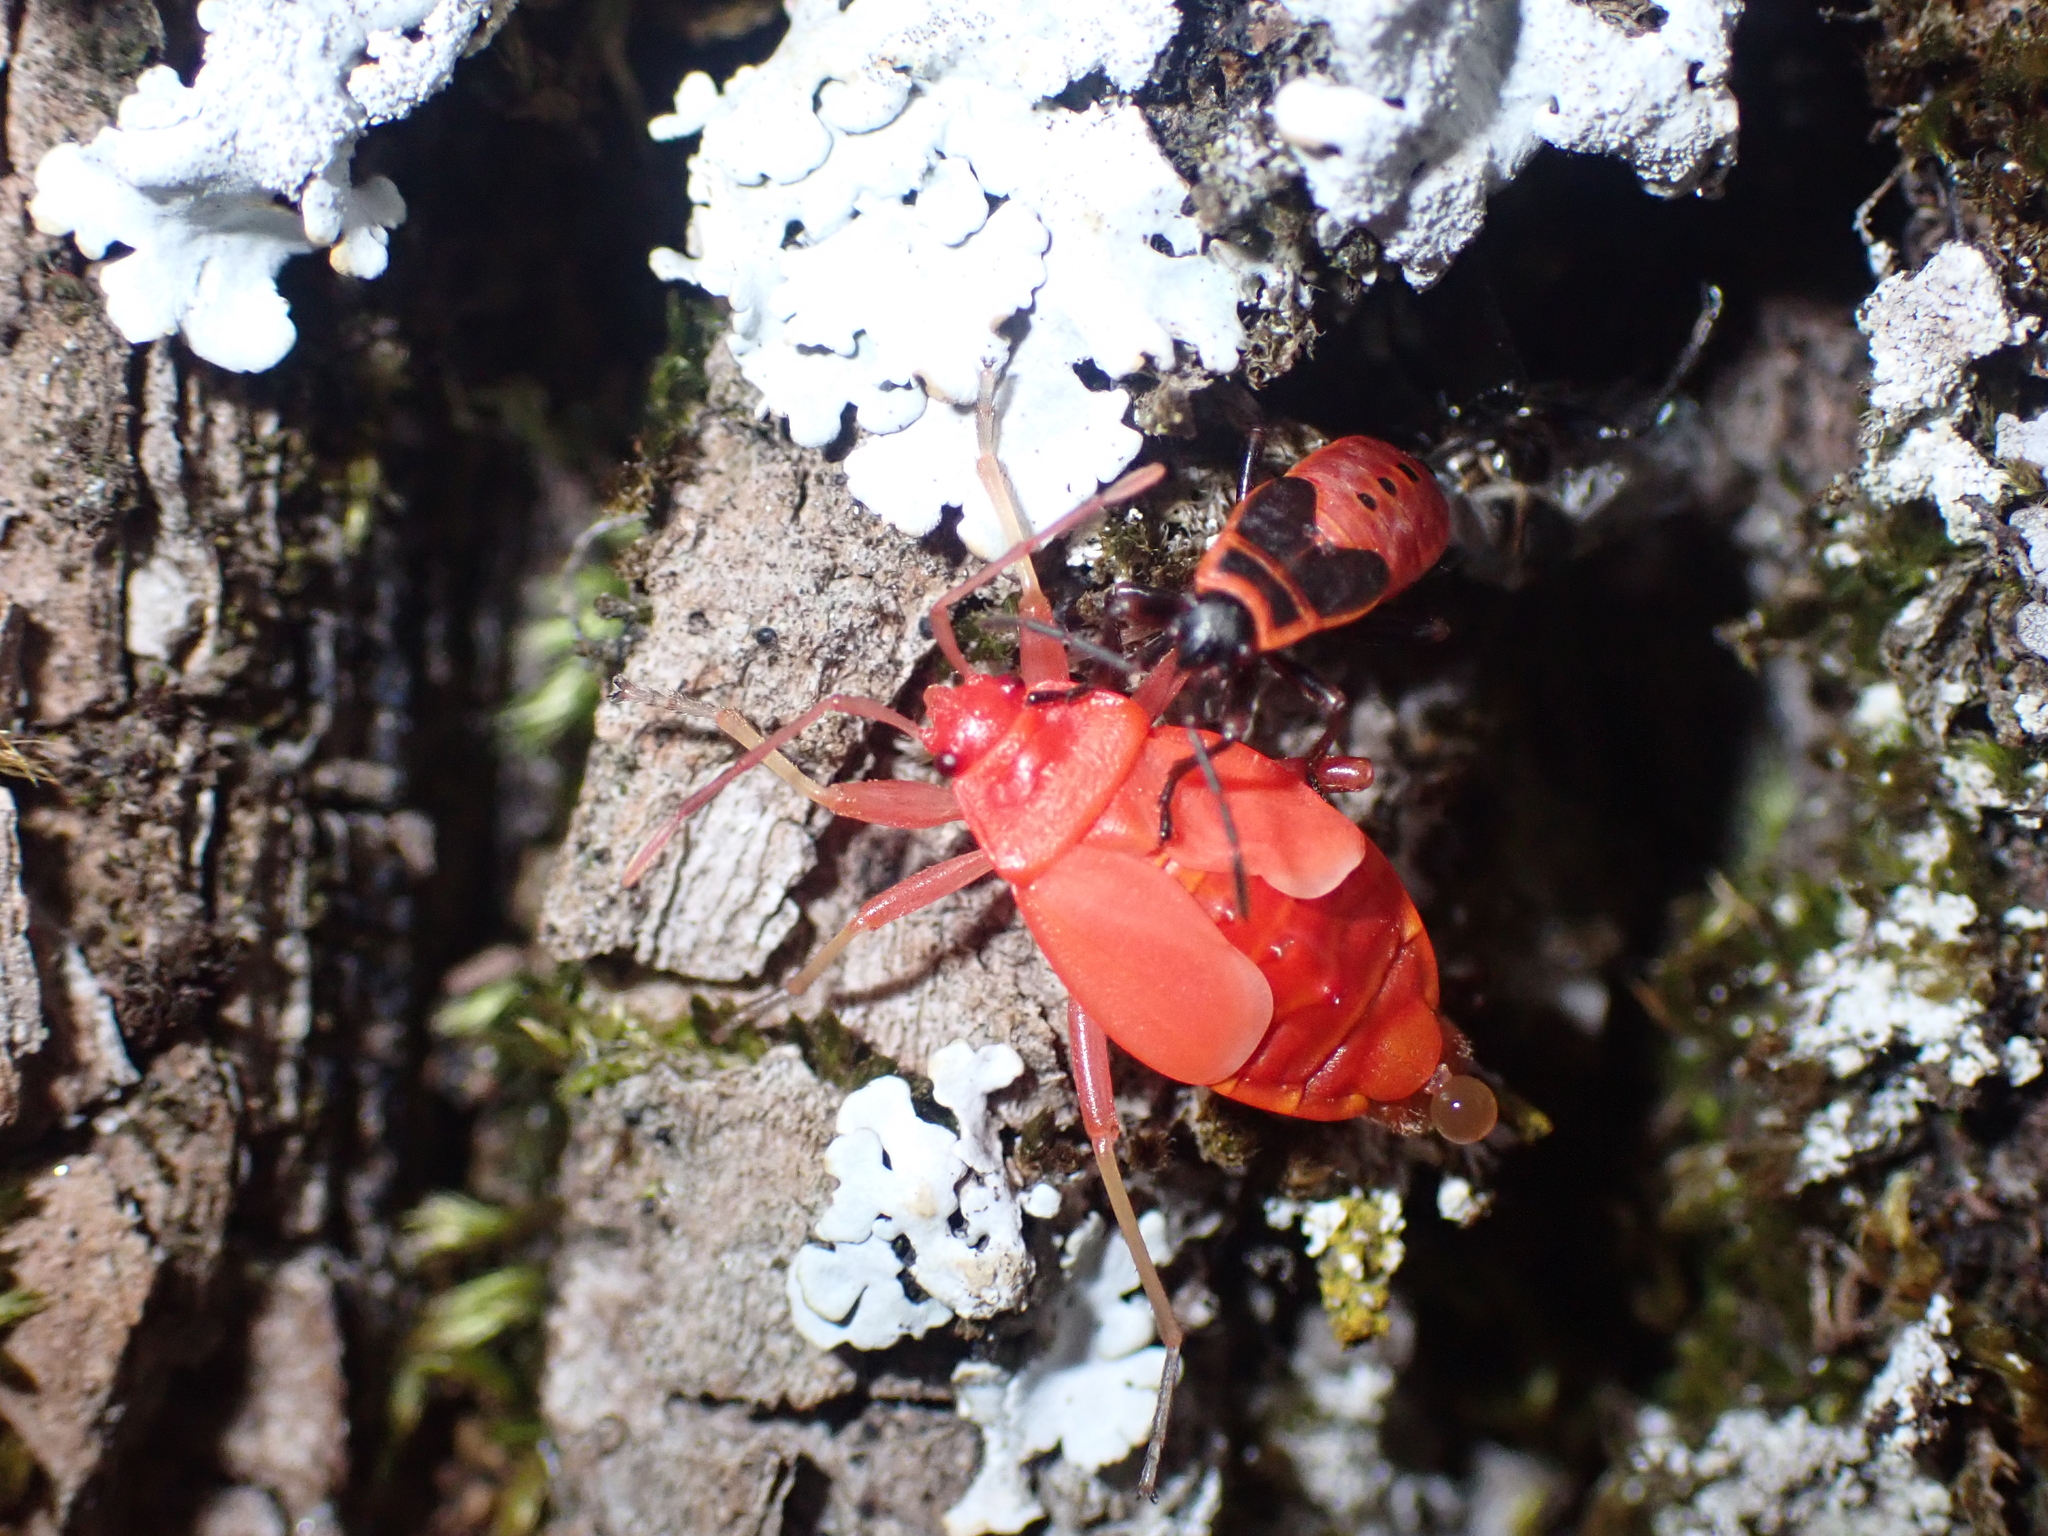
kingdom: Animalia
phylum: Arthropoda
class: Insecta
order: Hemiptera
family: Pyrrhocoridae
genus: Pyrrhocoris
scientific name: Pyrrhocoris apterus
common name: Firebug
